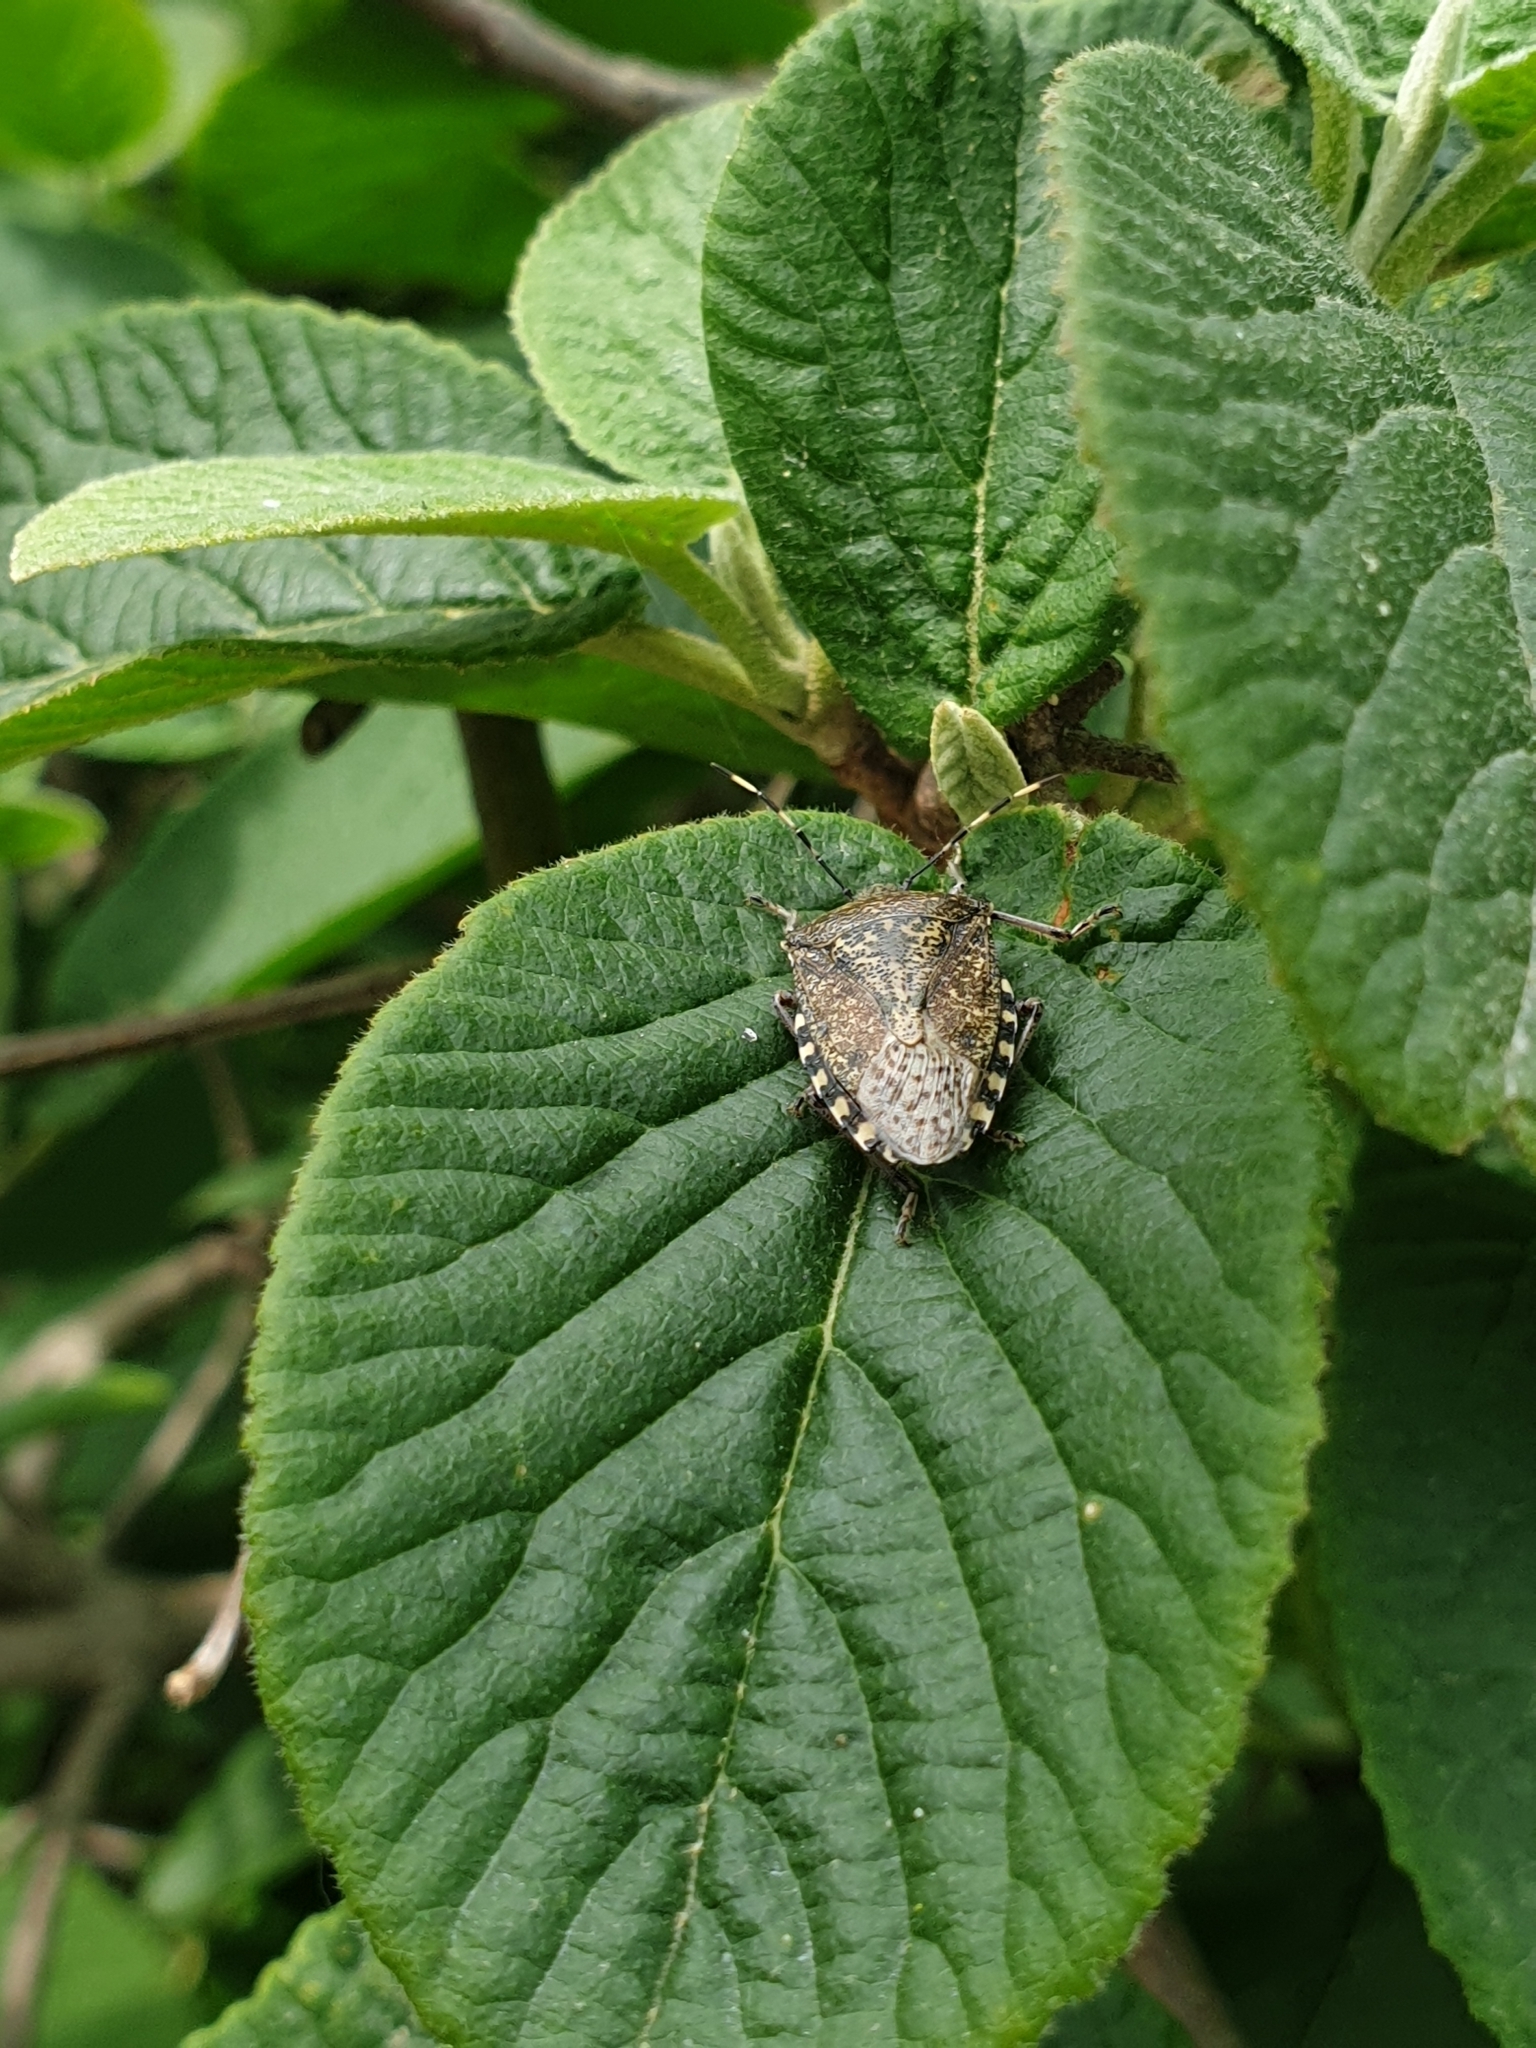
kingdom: Animalia
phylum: Arthropoda
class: Insecta
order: Hemiptera
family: Pentatomidae
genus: Rhaphigaster
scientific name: Rhaphigaster nebulosa
